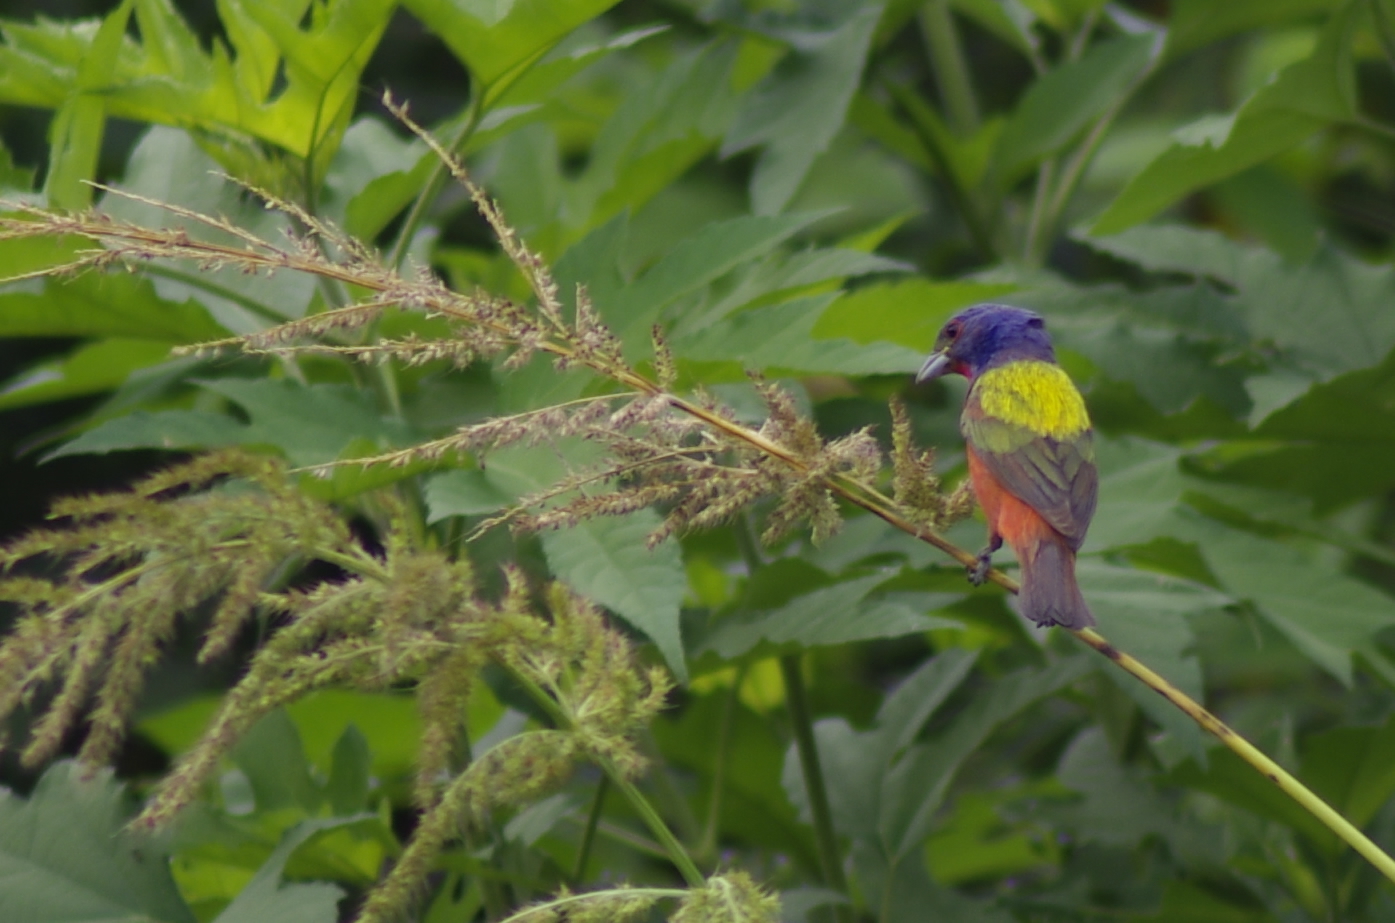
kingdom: Animalia
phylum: Chordata
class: Aves
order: Passeriformes
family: Cardinalidae
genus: Passerina
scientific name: Passerina ciris
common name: Painted bunting
